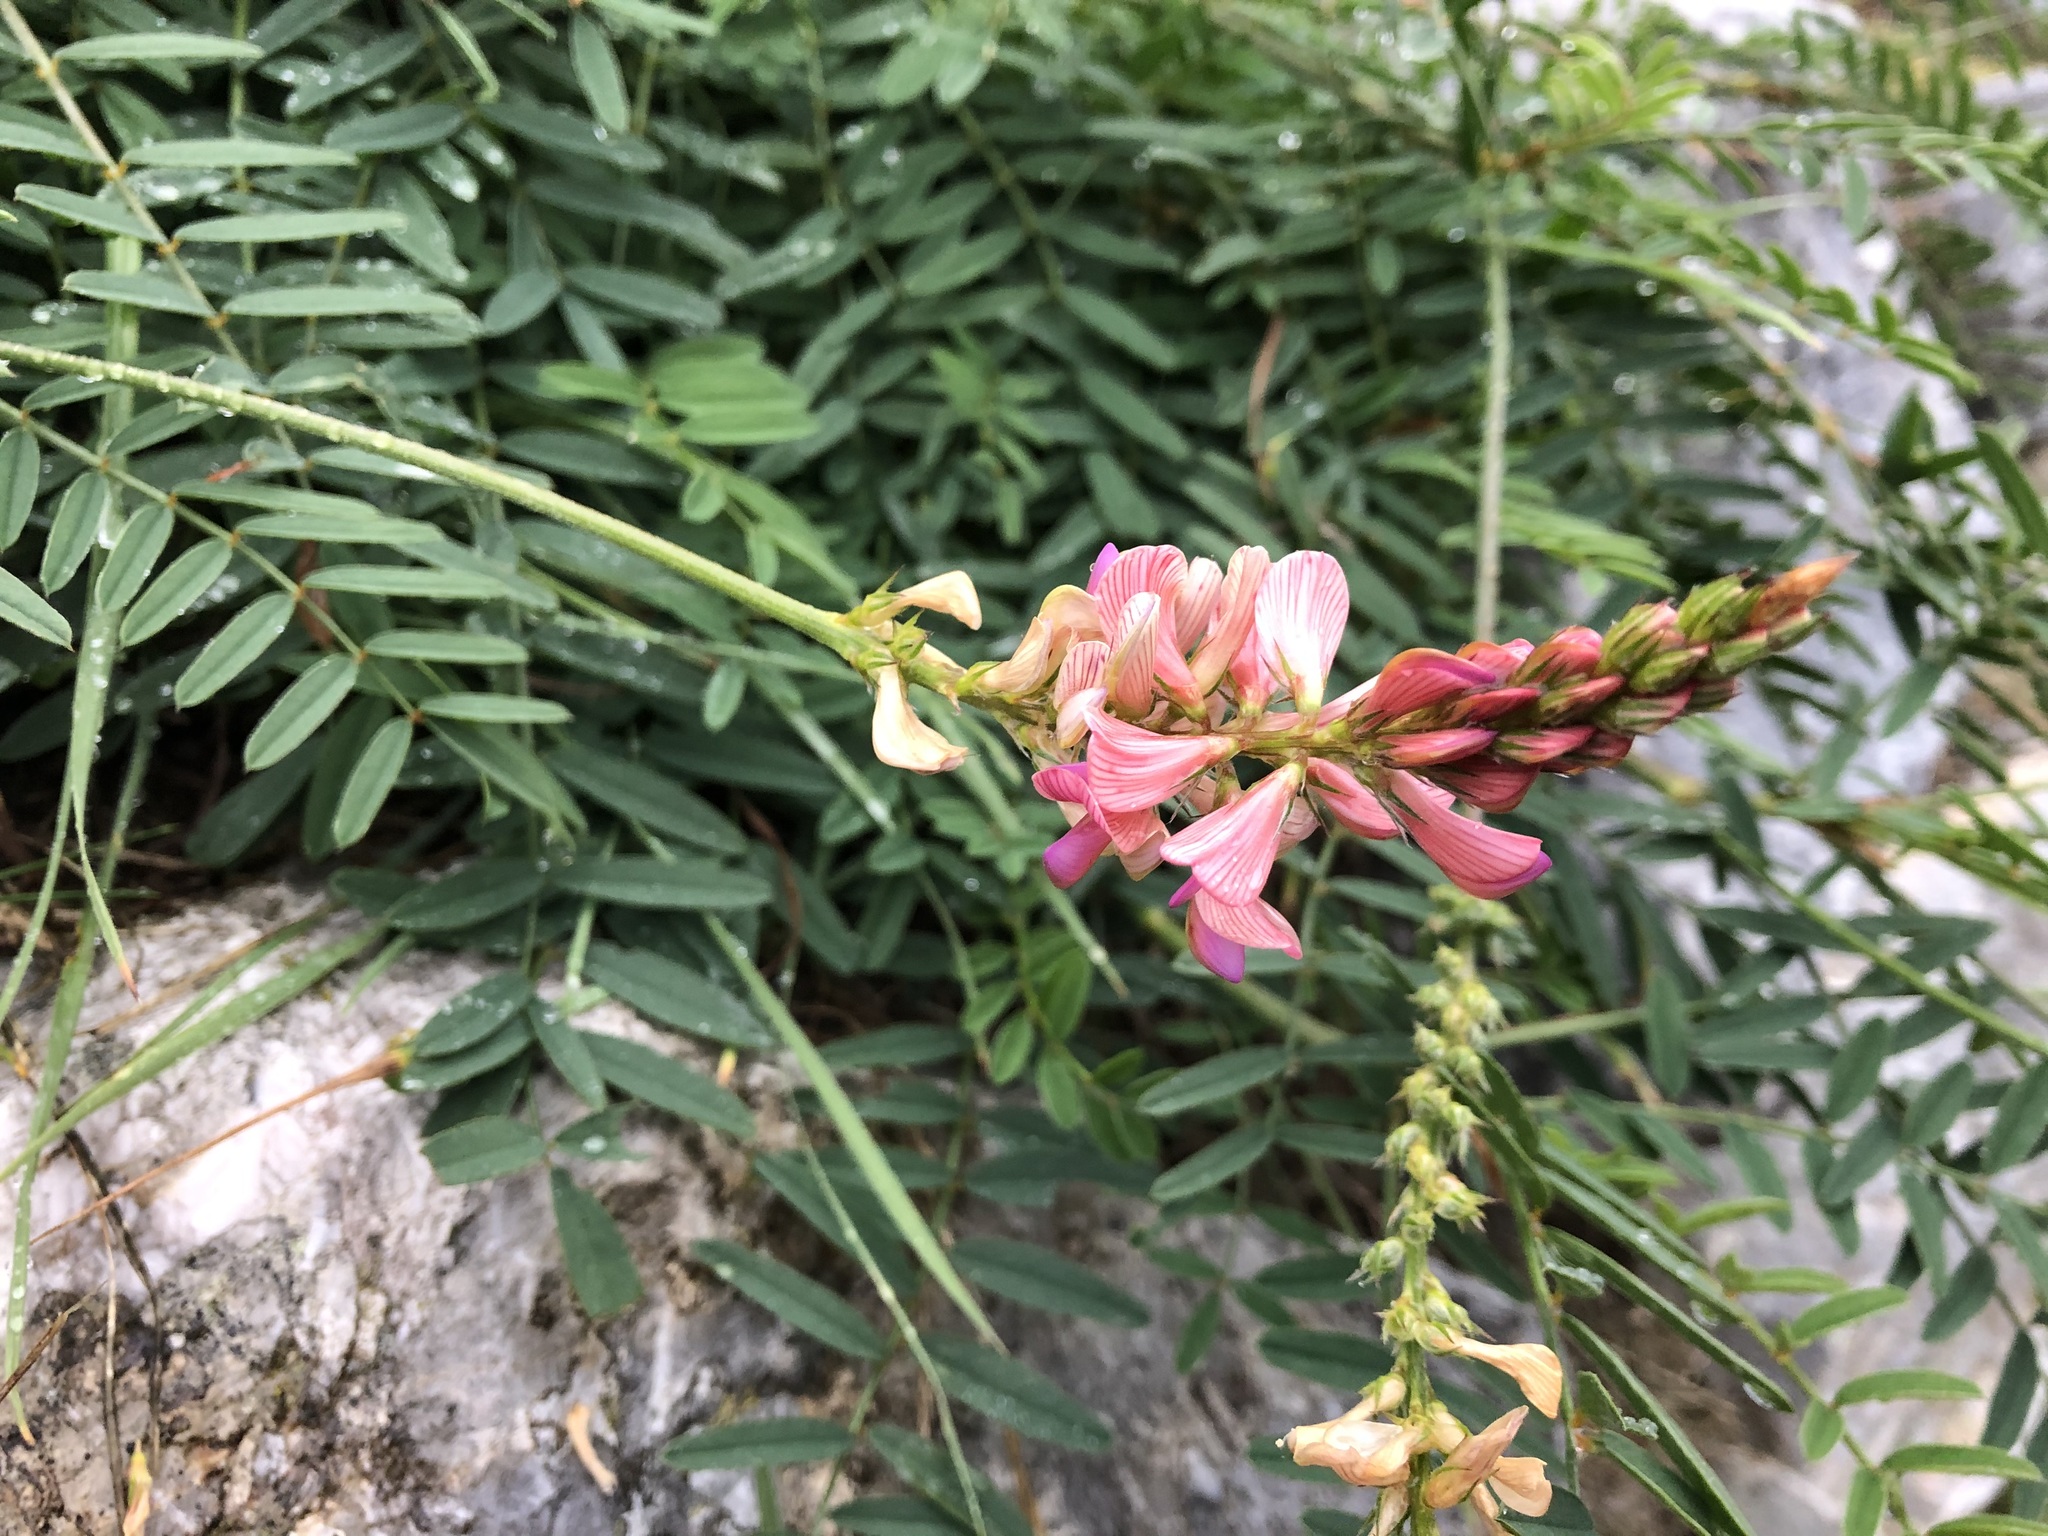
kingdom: Plantae
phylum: Tracheophyta
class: Magnoliopsida
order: Fabales
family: Fabaceae
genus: Onobrychis
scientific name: Onobrychis viciifolia
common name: Sainfoin
